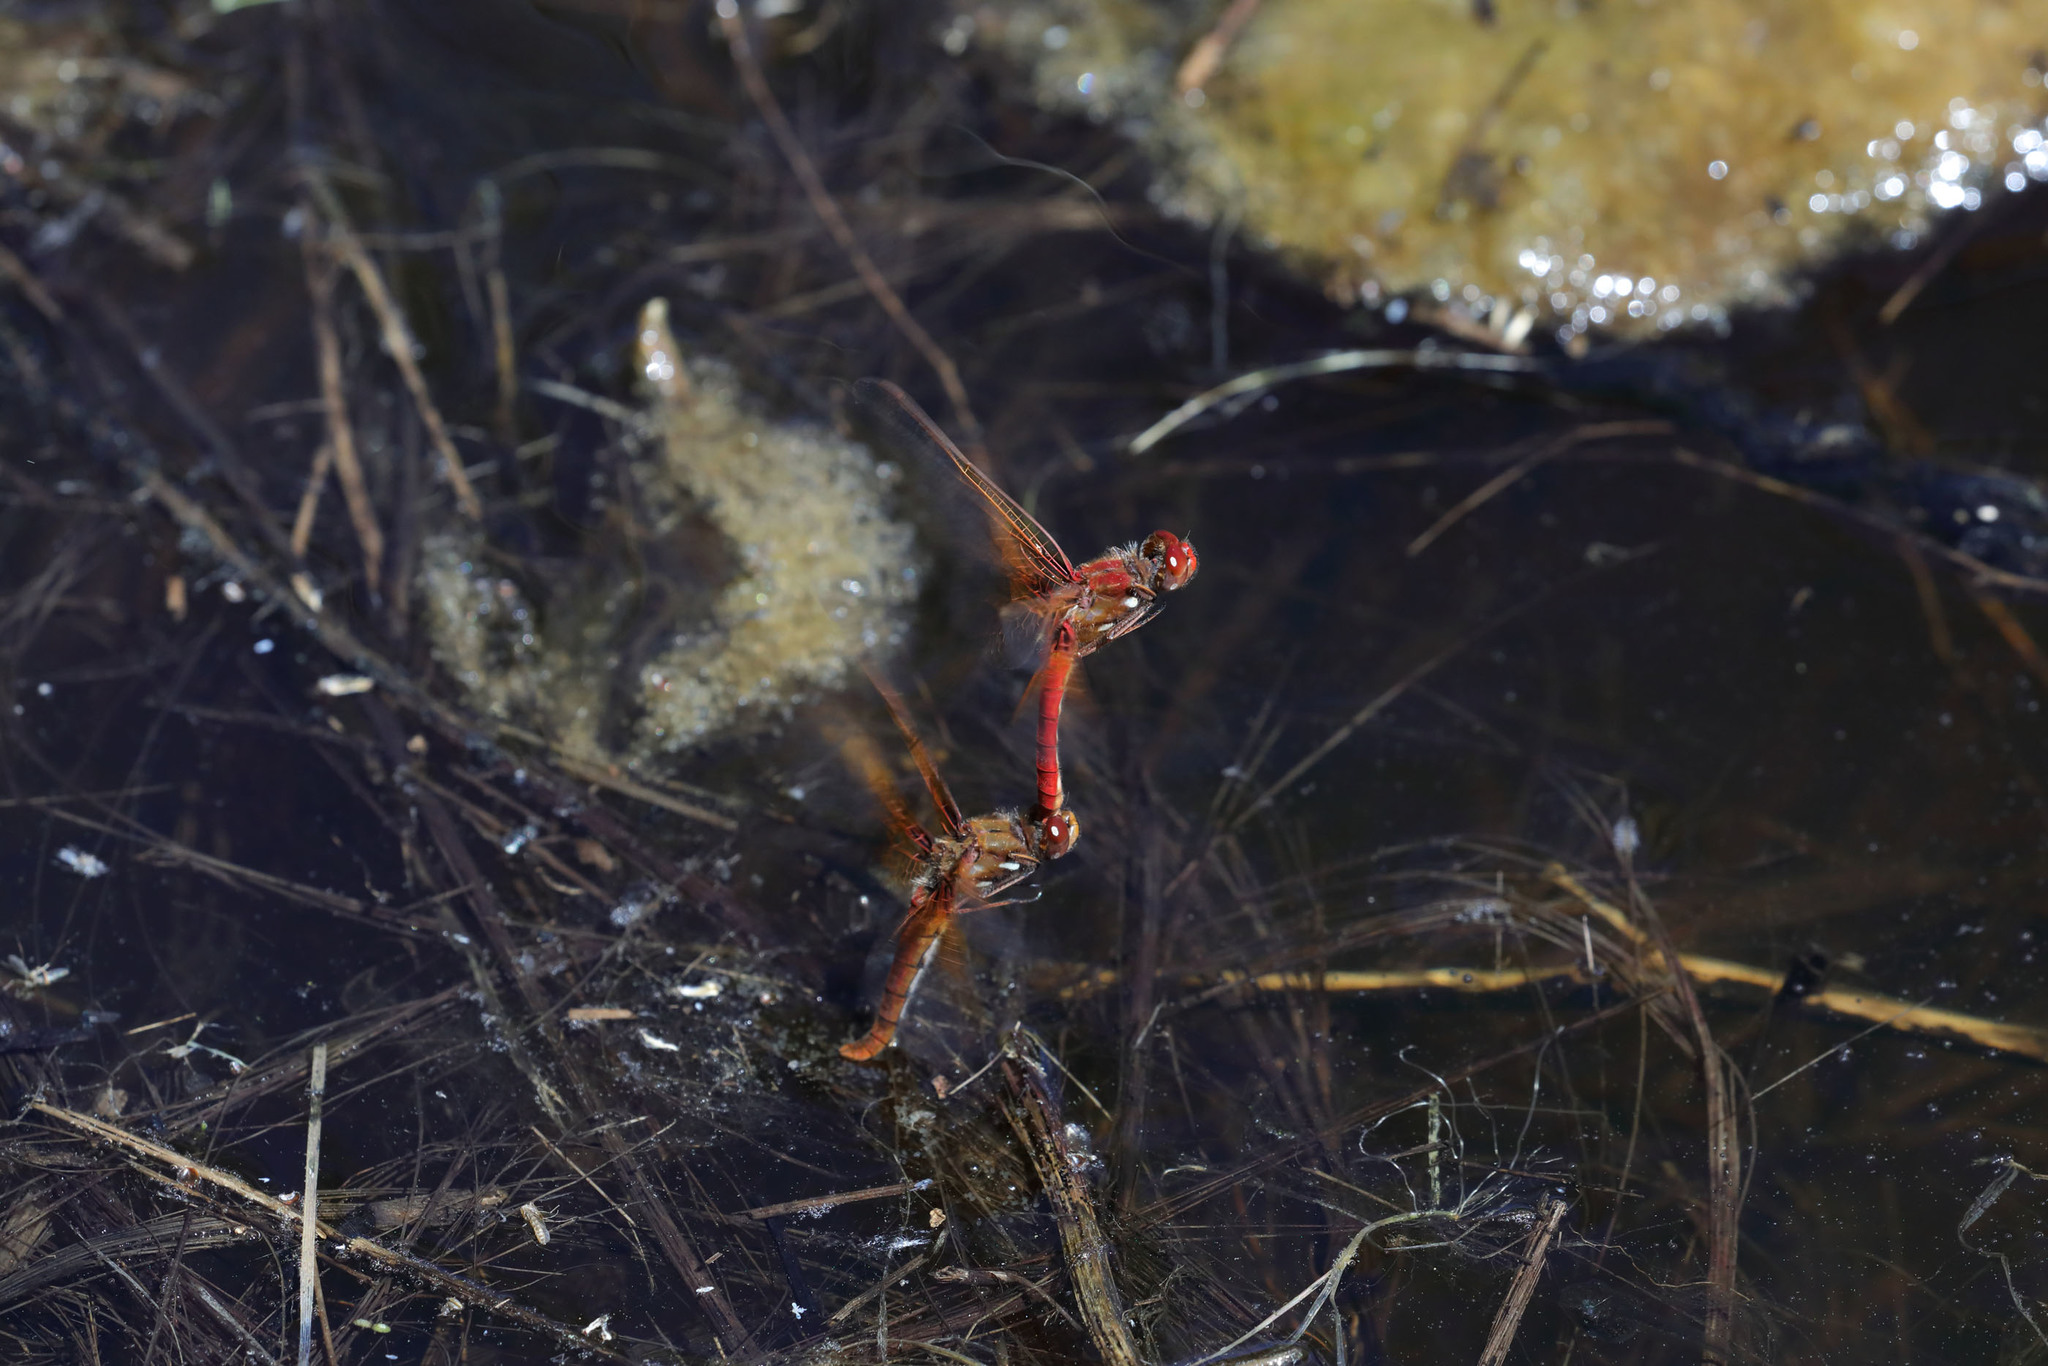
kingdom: Animalia
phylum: Arthropoda
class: Insecta
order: Odonata
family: Libellulidae
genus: Sympetrum
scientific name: Sympetrum illotum
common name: Cardinal meadowhawk
